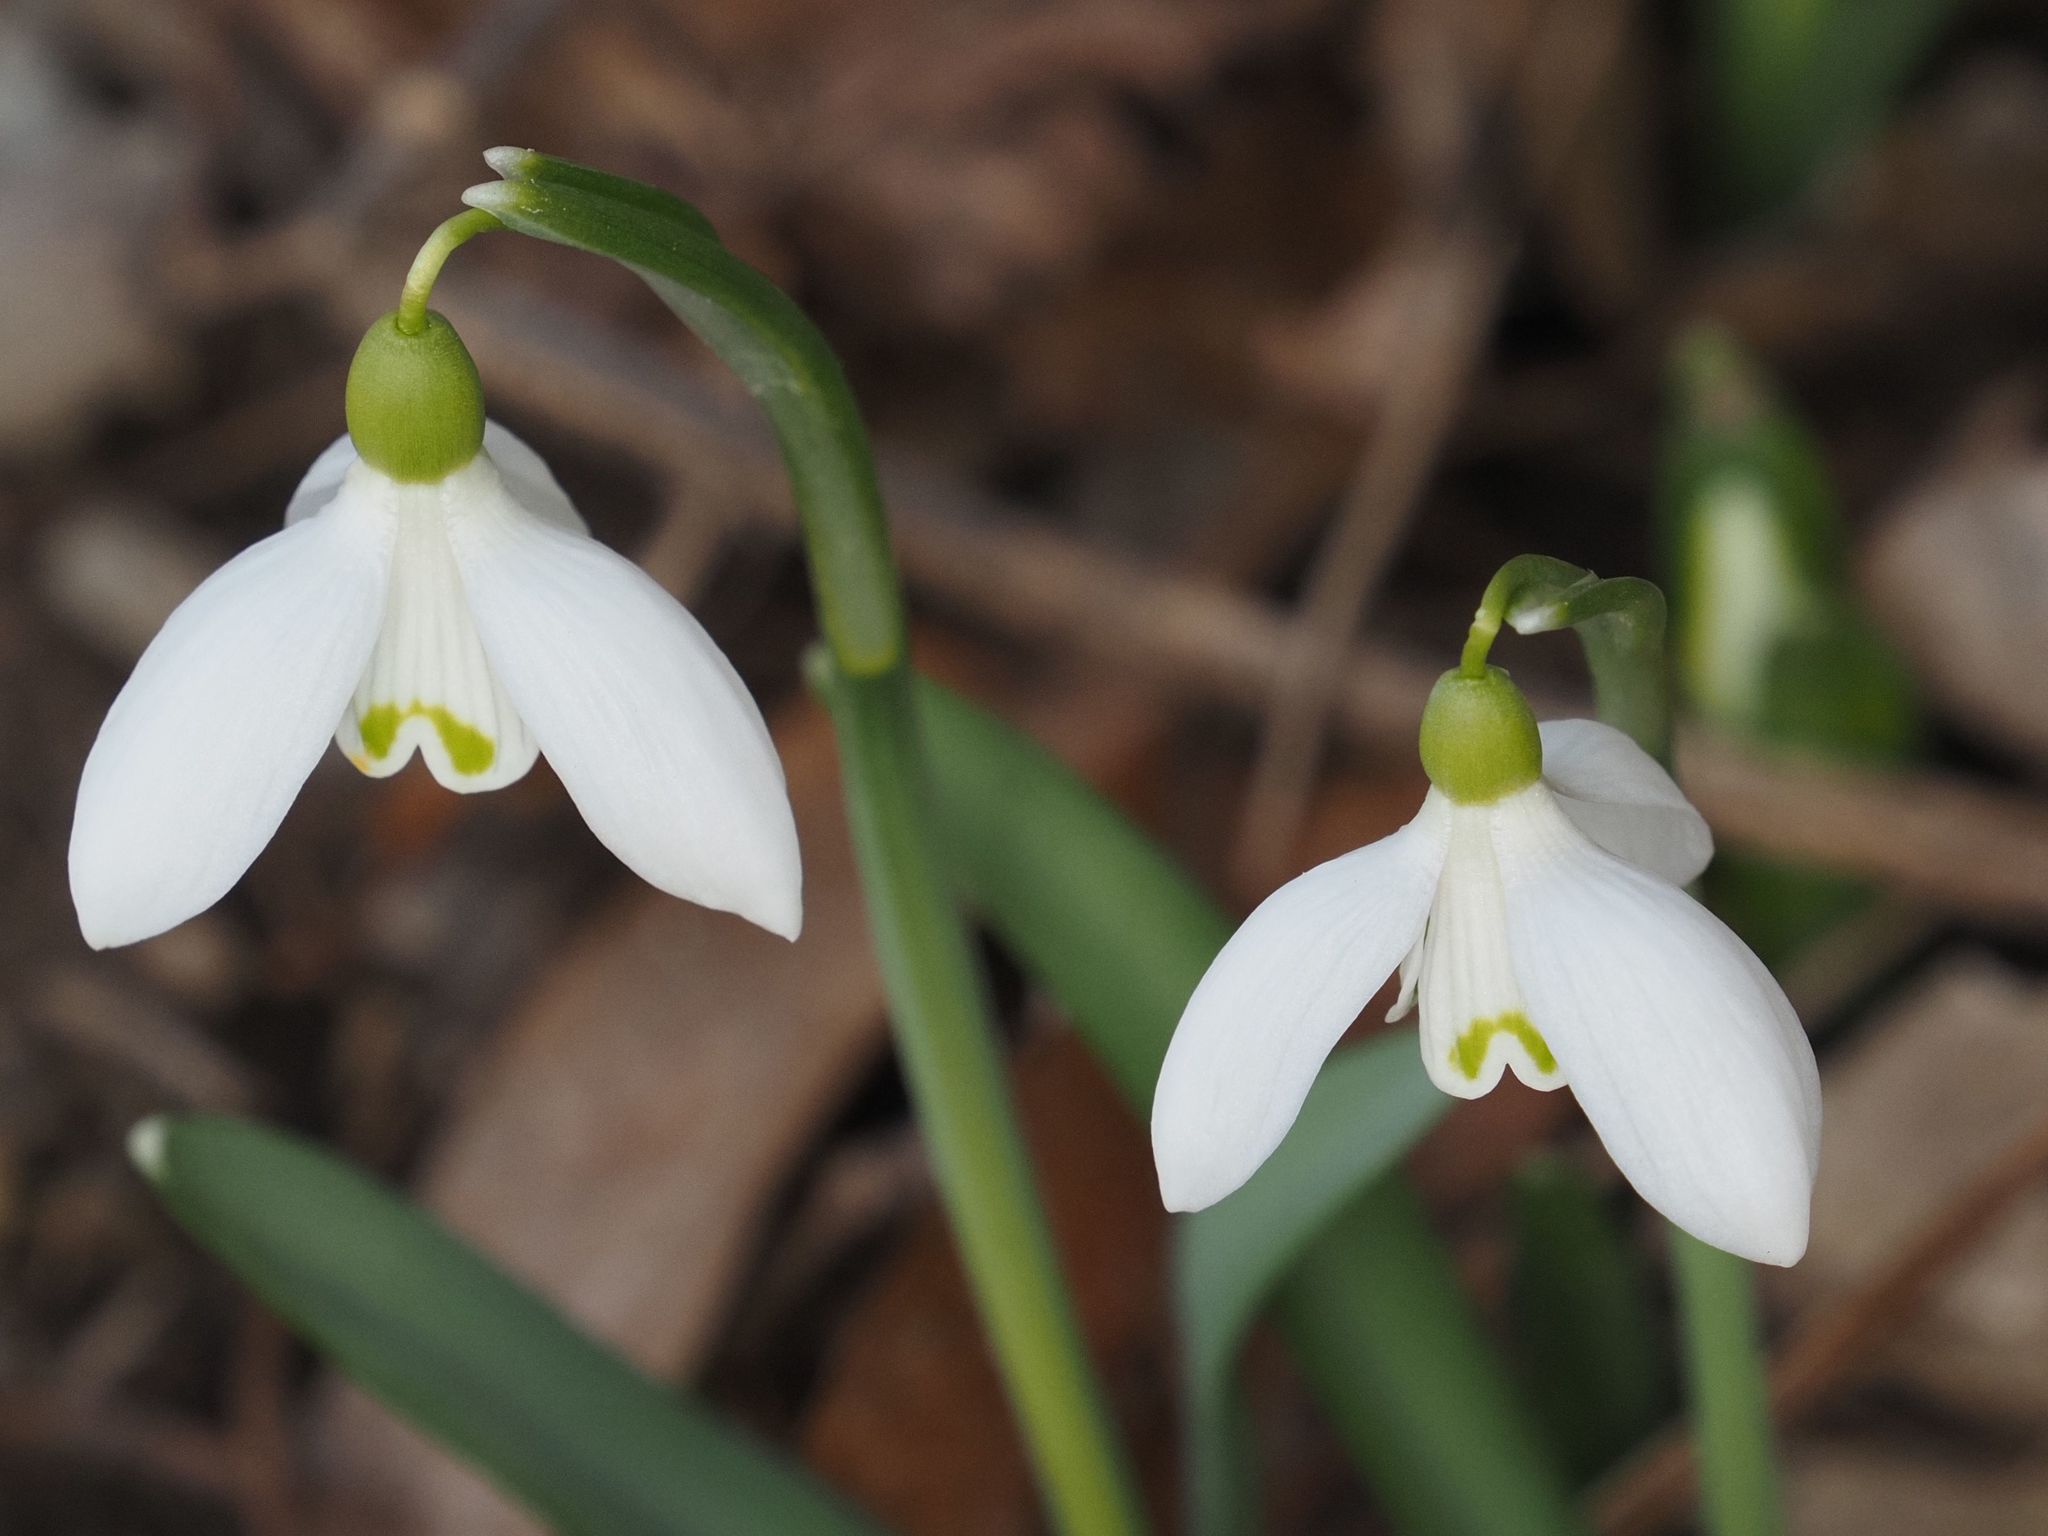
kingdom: Plantae
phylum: Tracheophyta
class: Liliopsida
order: Asparagales
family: Amaryllidaceae
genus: Galanthus
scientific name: Galanthus nivalis
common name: Snowdrop
